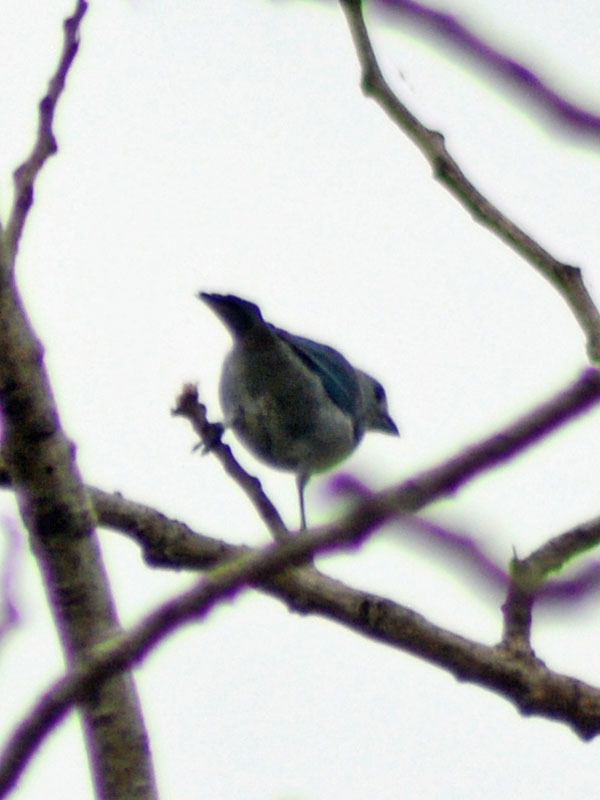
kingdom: Animalia
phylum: Chordata
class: Aves
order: Passeriformes
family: Thraupidae
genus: Thraupis
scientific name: Thraupis episcopus
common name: Blue-grey tanager
